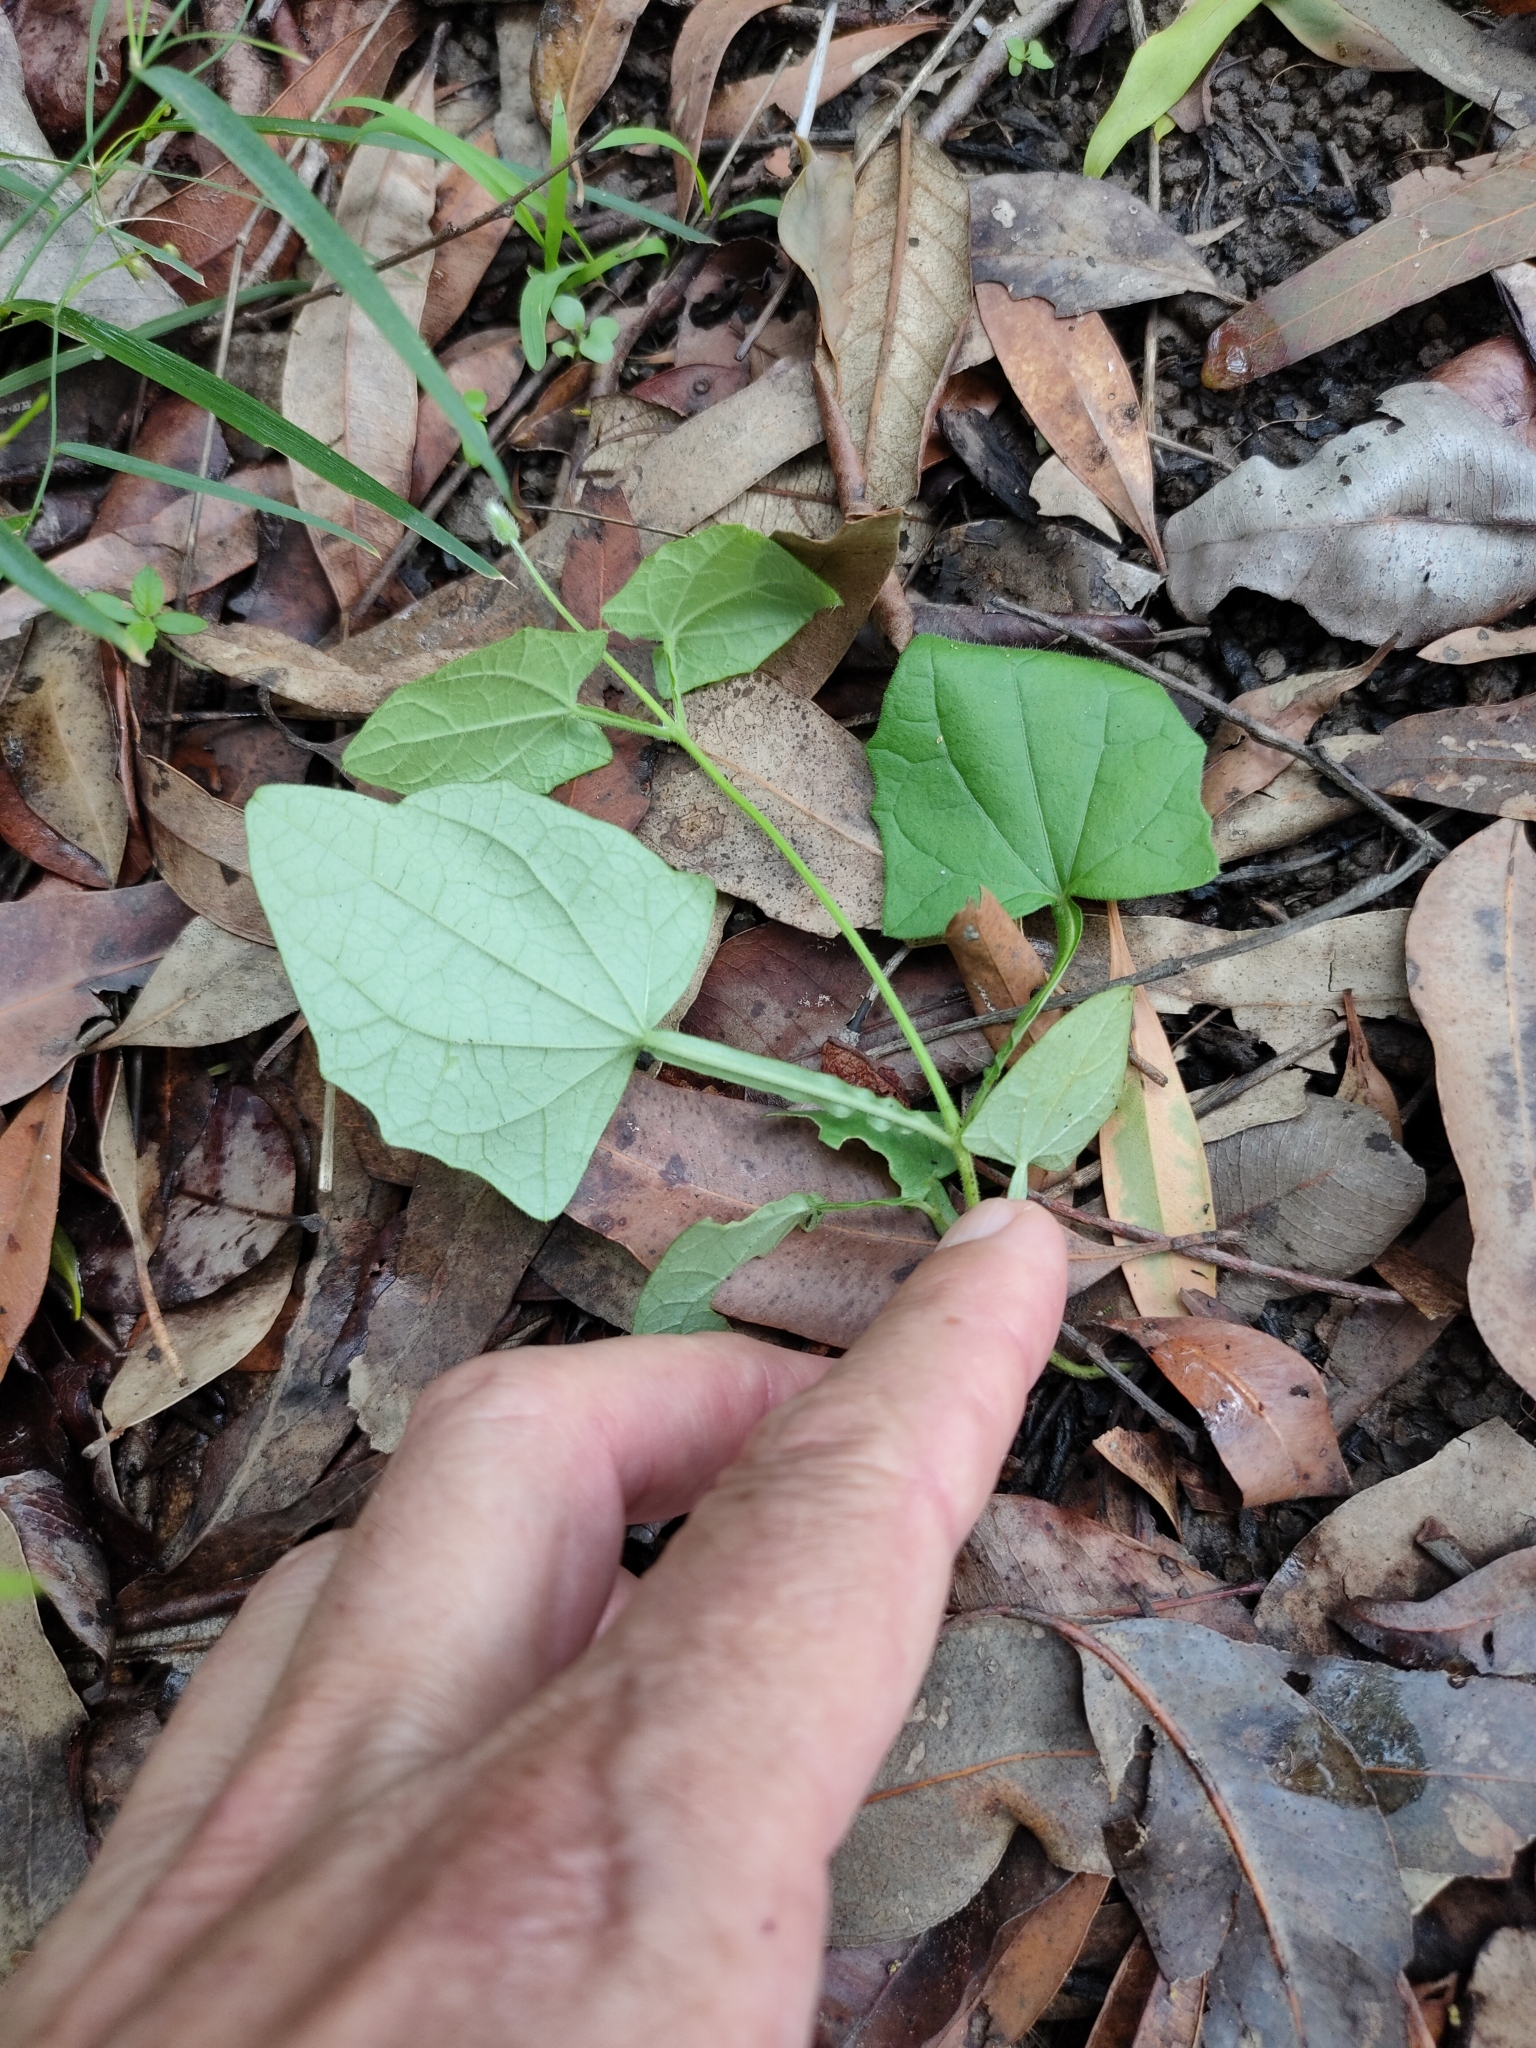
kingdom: Plantae
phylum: Tracheophyta
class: Magnoliopsida
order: Lamiales
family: Acanthaceae
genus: Thunbergia
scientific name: Thunbergia alata
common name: Blackeyed susan vine
